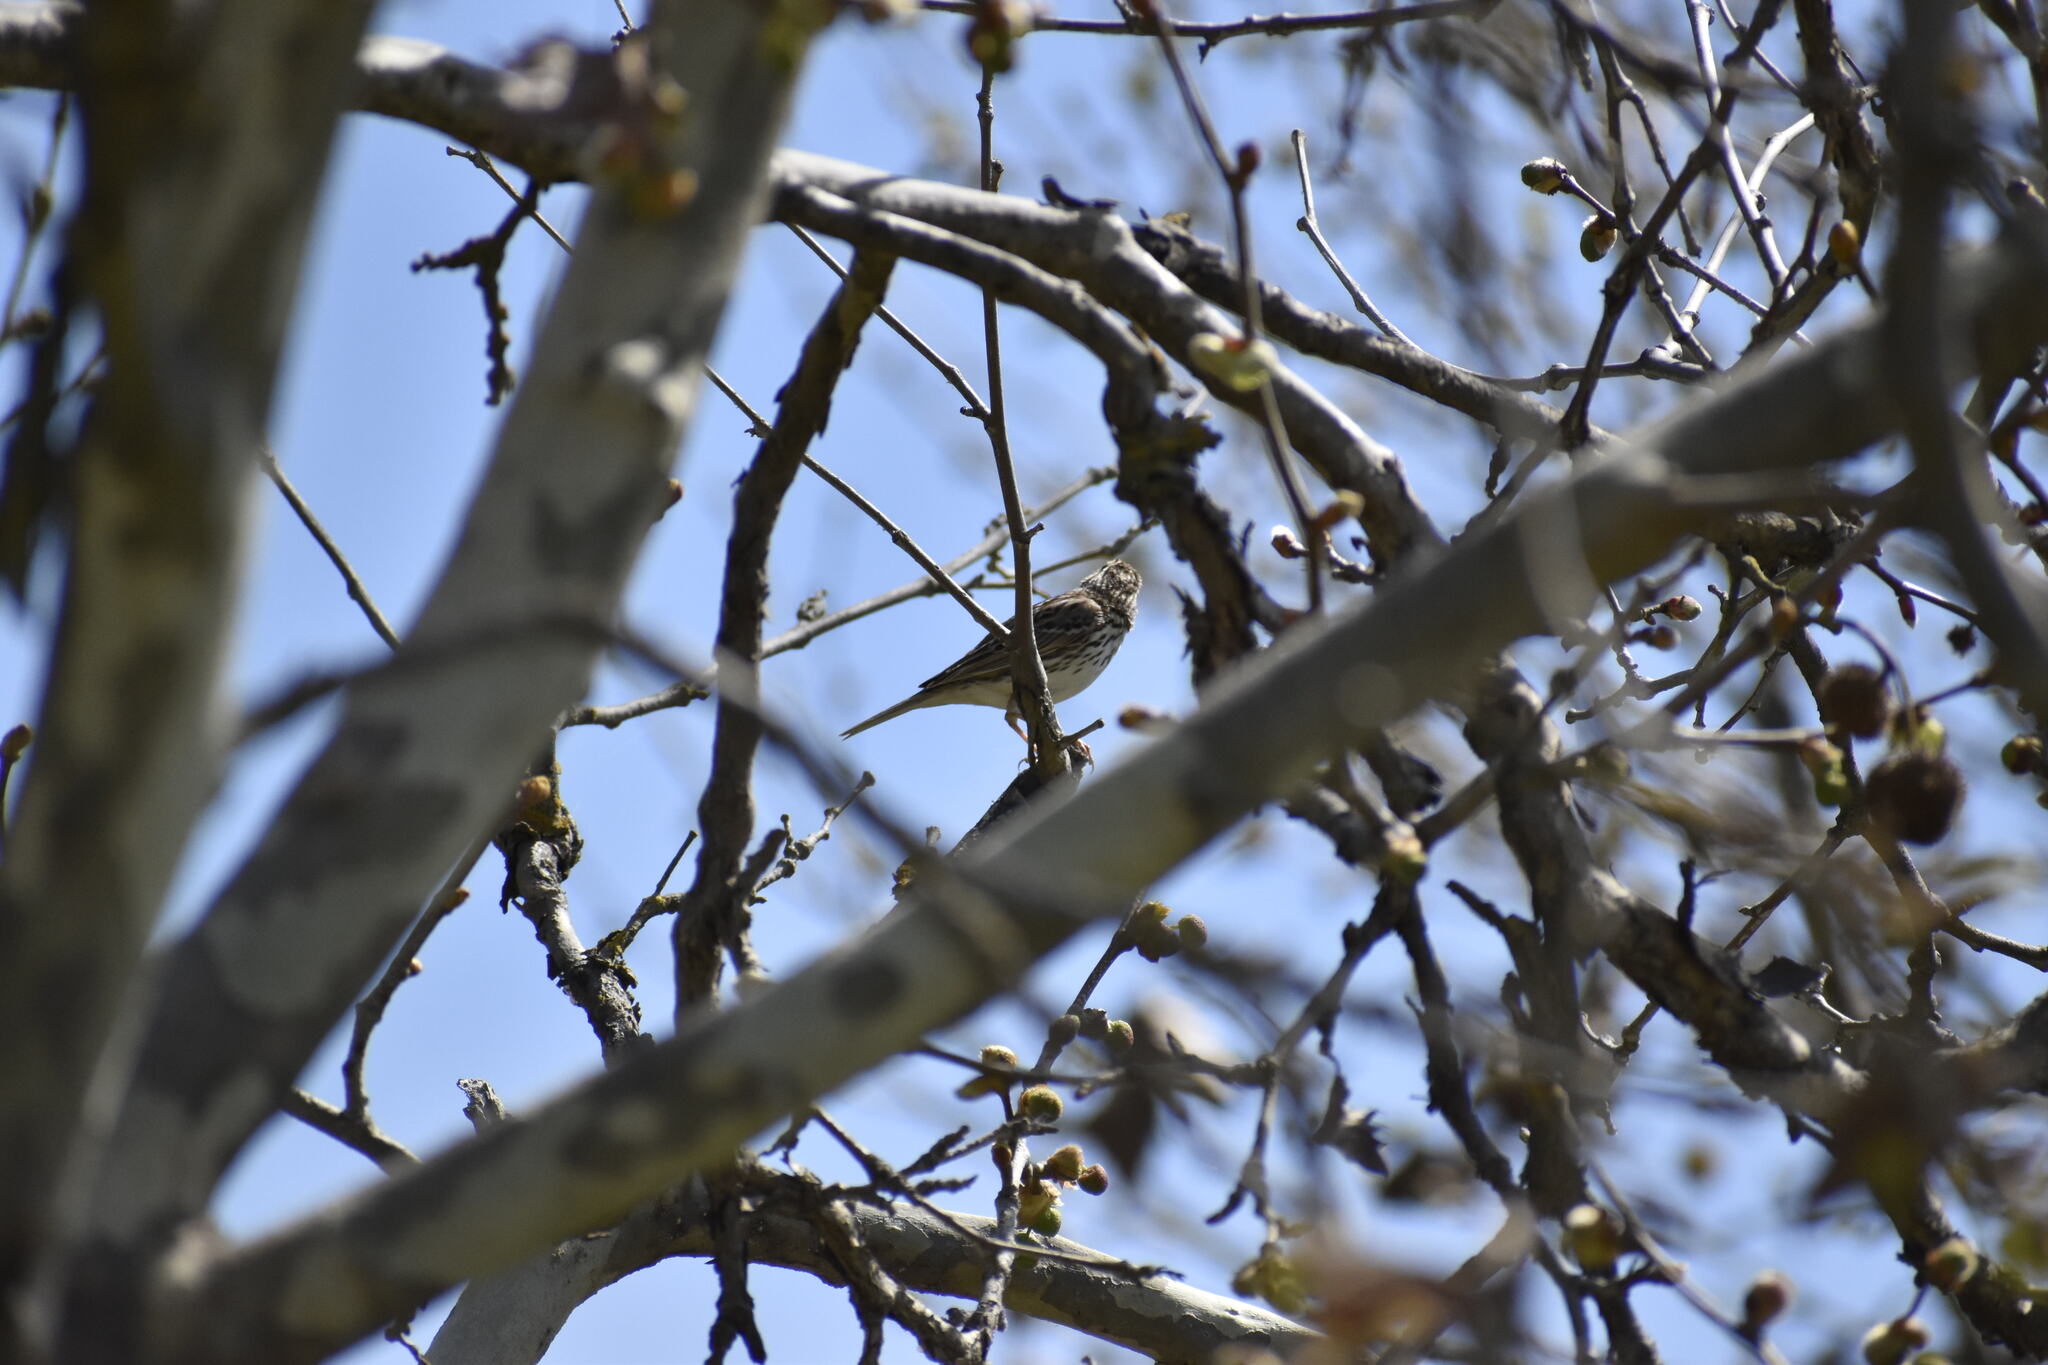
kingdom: Animalia
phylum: Chordata
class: Aves
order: Passeriformes
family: Passerellidae
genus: Passerculus
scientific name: Passerculus sandwichensis
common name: Savannah sparrow
